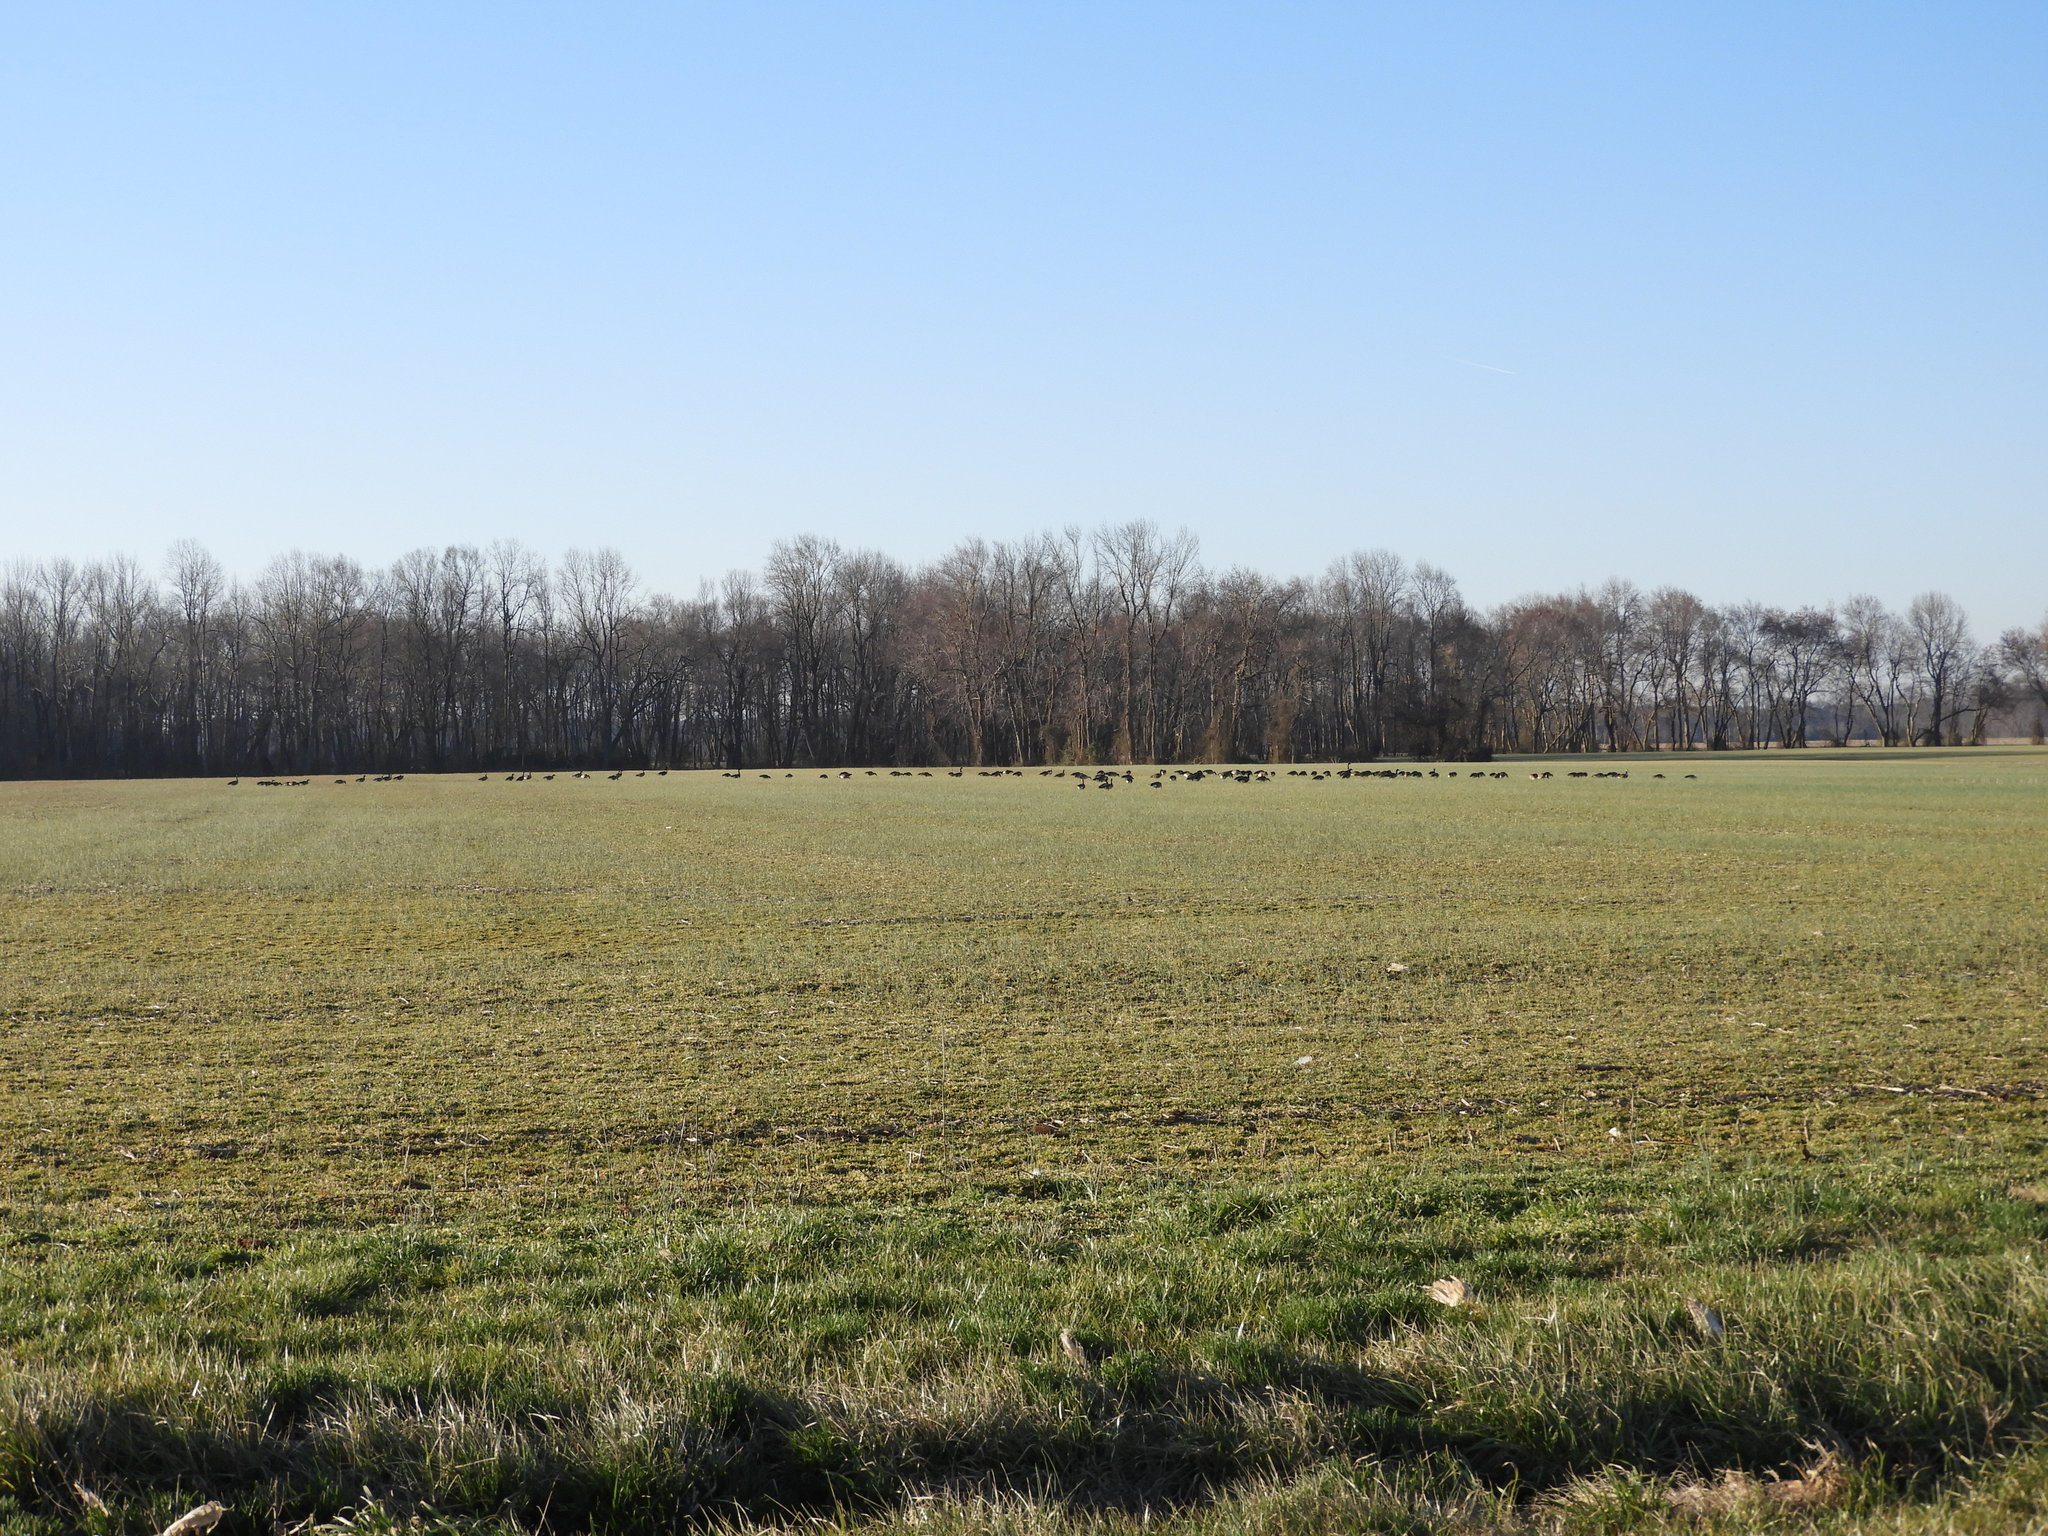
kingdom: Animalia
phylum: Chordata
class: Aves
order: Anseriformes
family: Anatidae
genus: Branta
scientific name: Branta canadensis
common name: Canada goose
